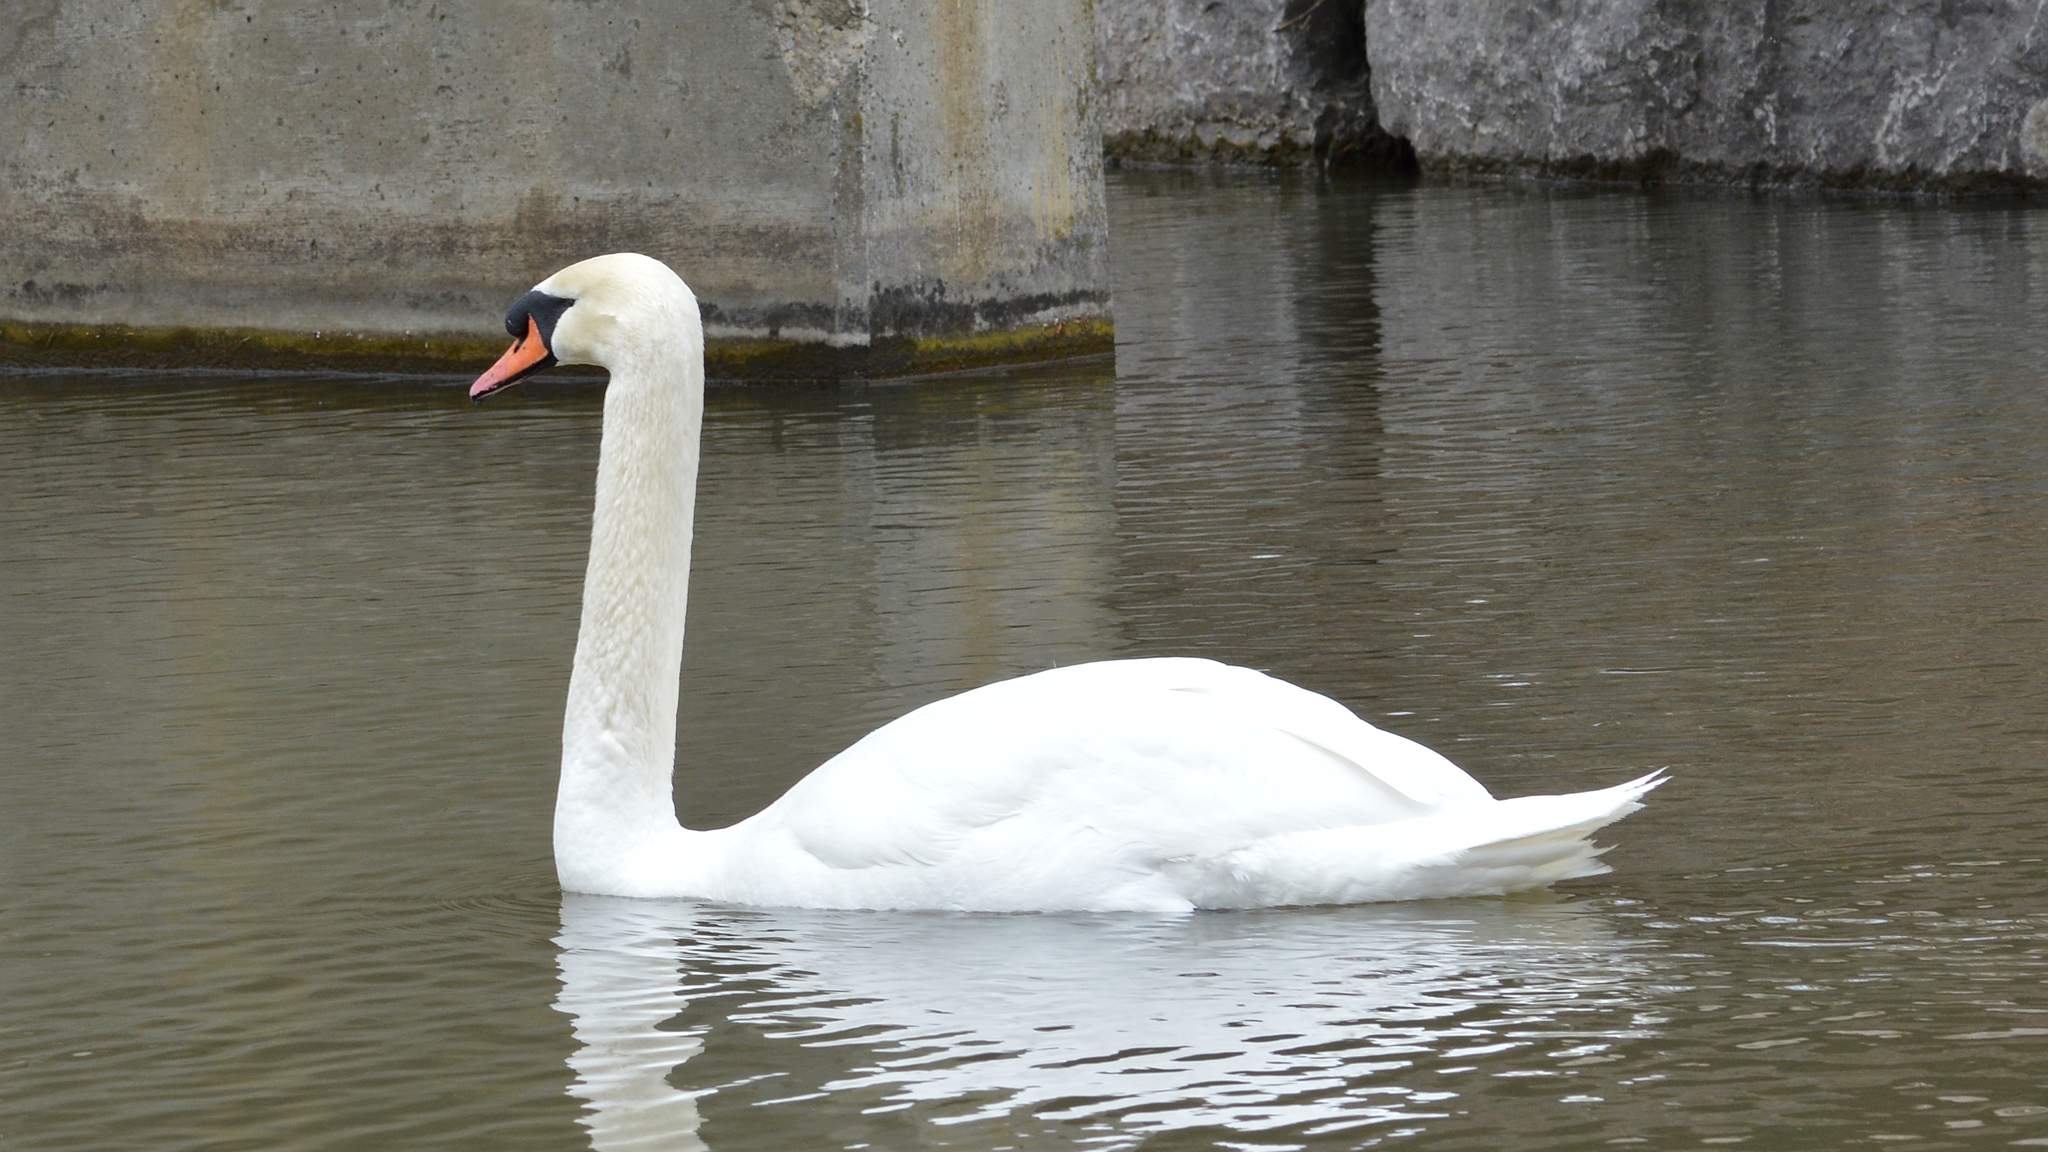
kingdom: Animalia
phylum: Chordata
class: Aves
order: Anseriformes
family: Anatidae
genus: Cygnus
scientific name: Cygnus olor
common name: Mute swan
